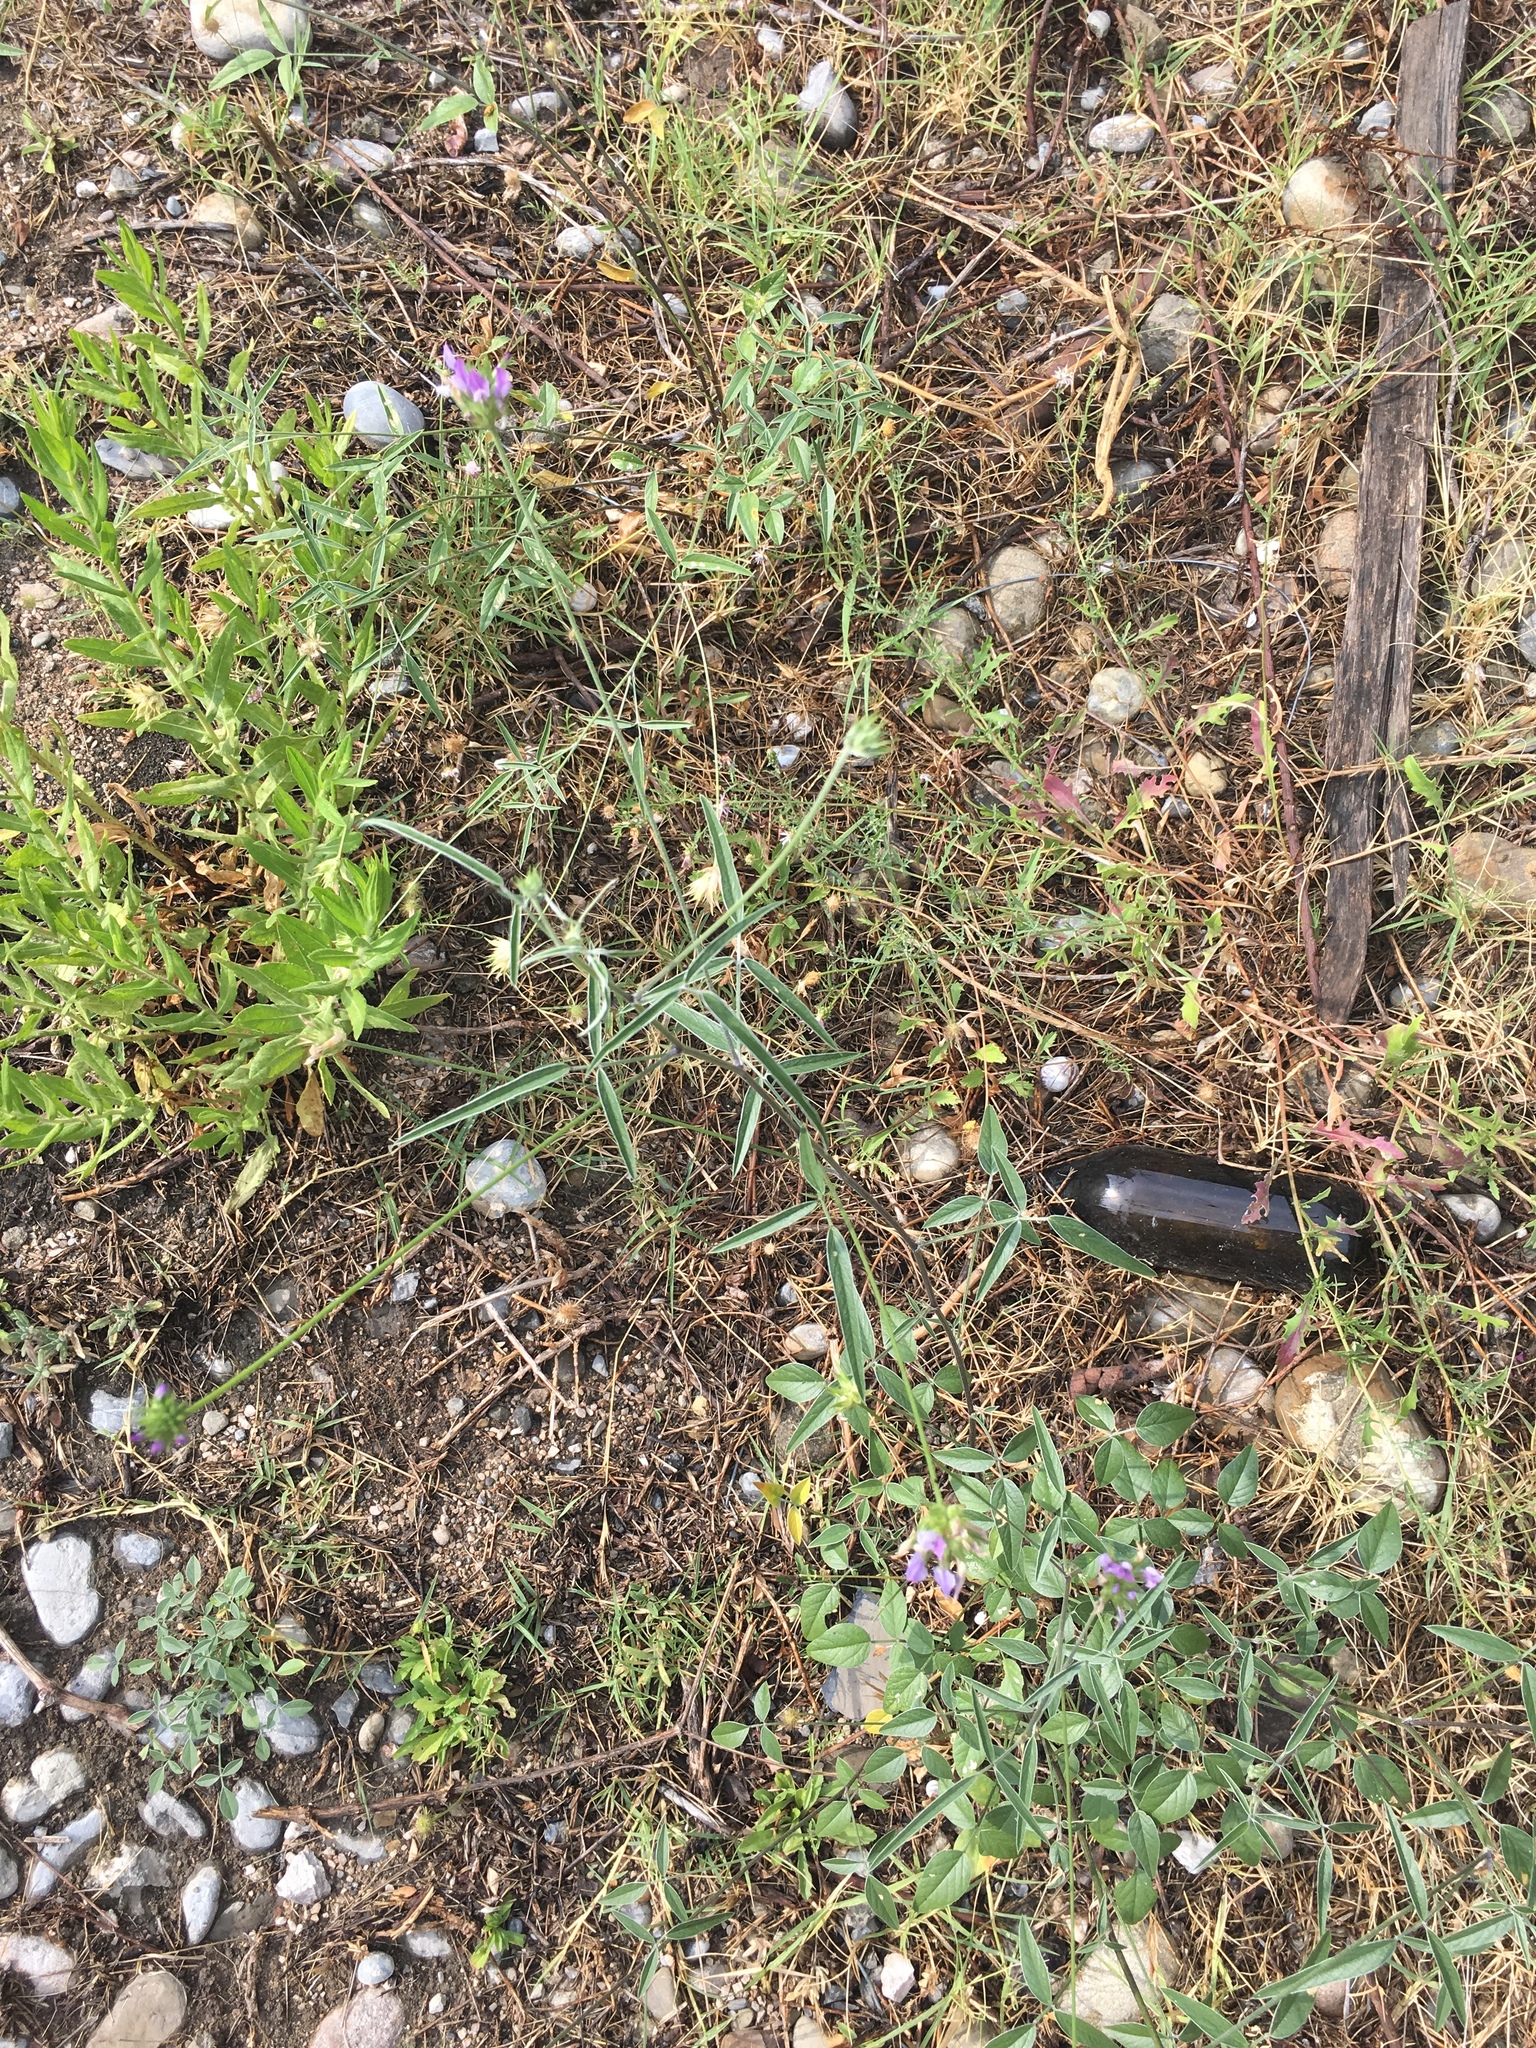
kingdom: Plantae
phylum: Tracheophyta
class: Magnoliopsida
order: Fabales
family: Fabaceae
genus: Bituminaria
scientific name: Bituminaria bituminosa
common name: Arabian pea
